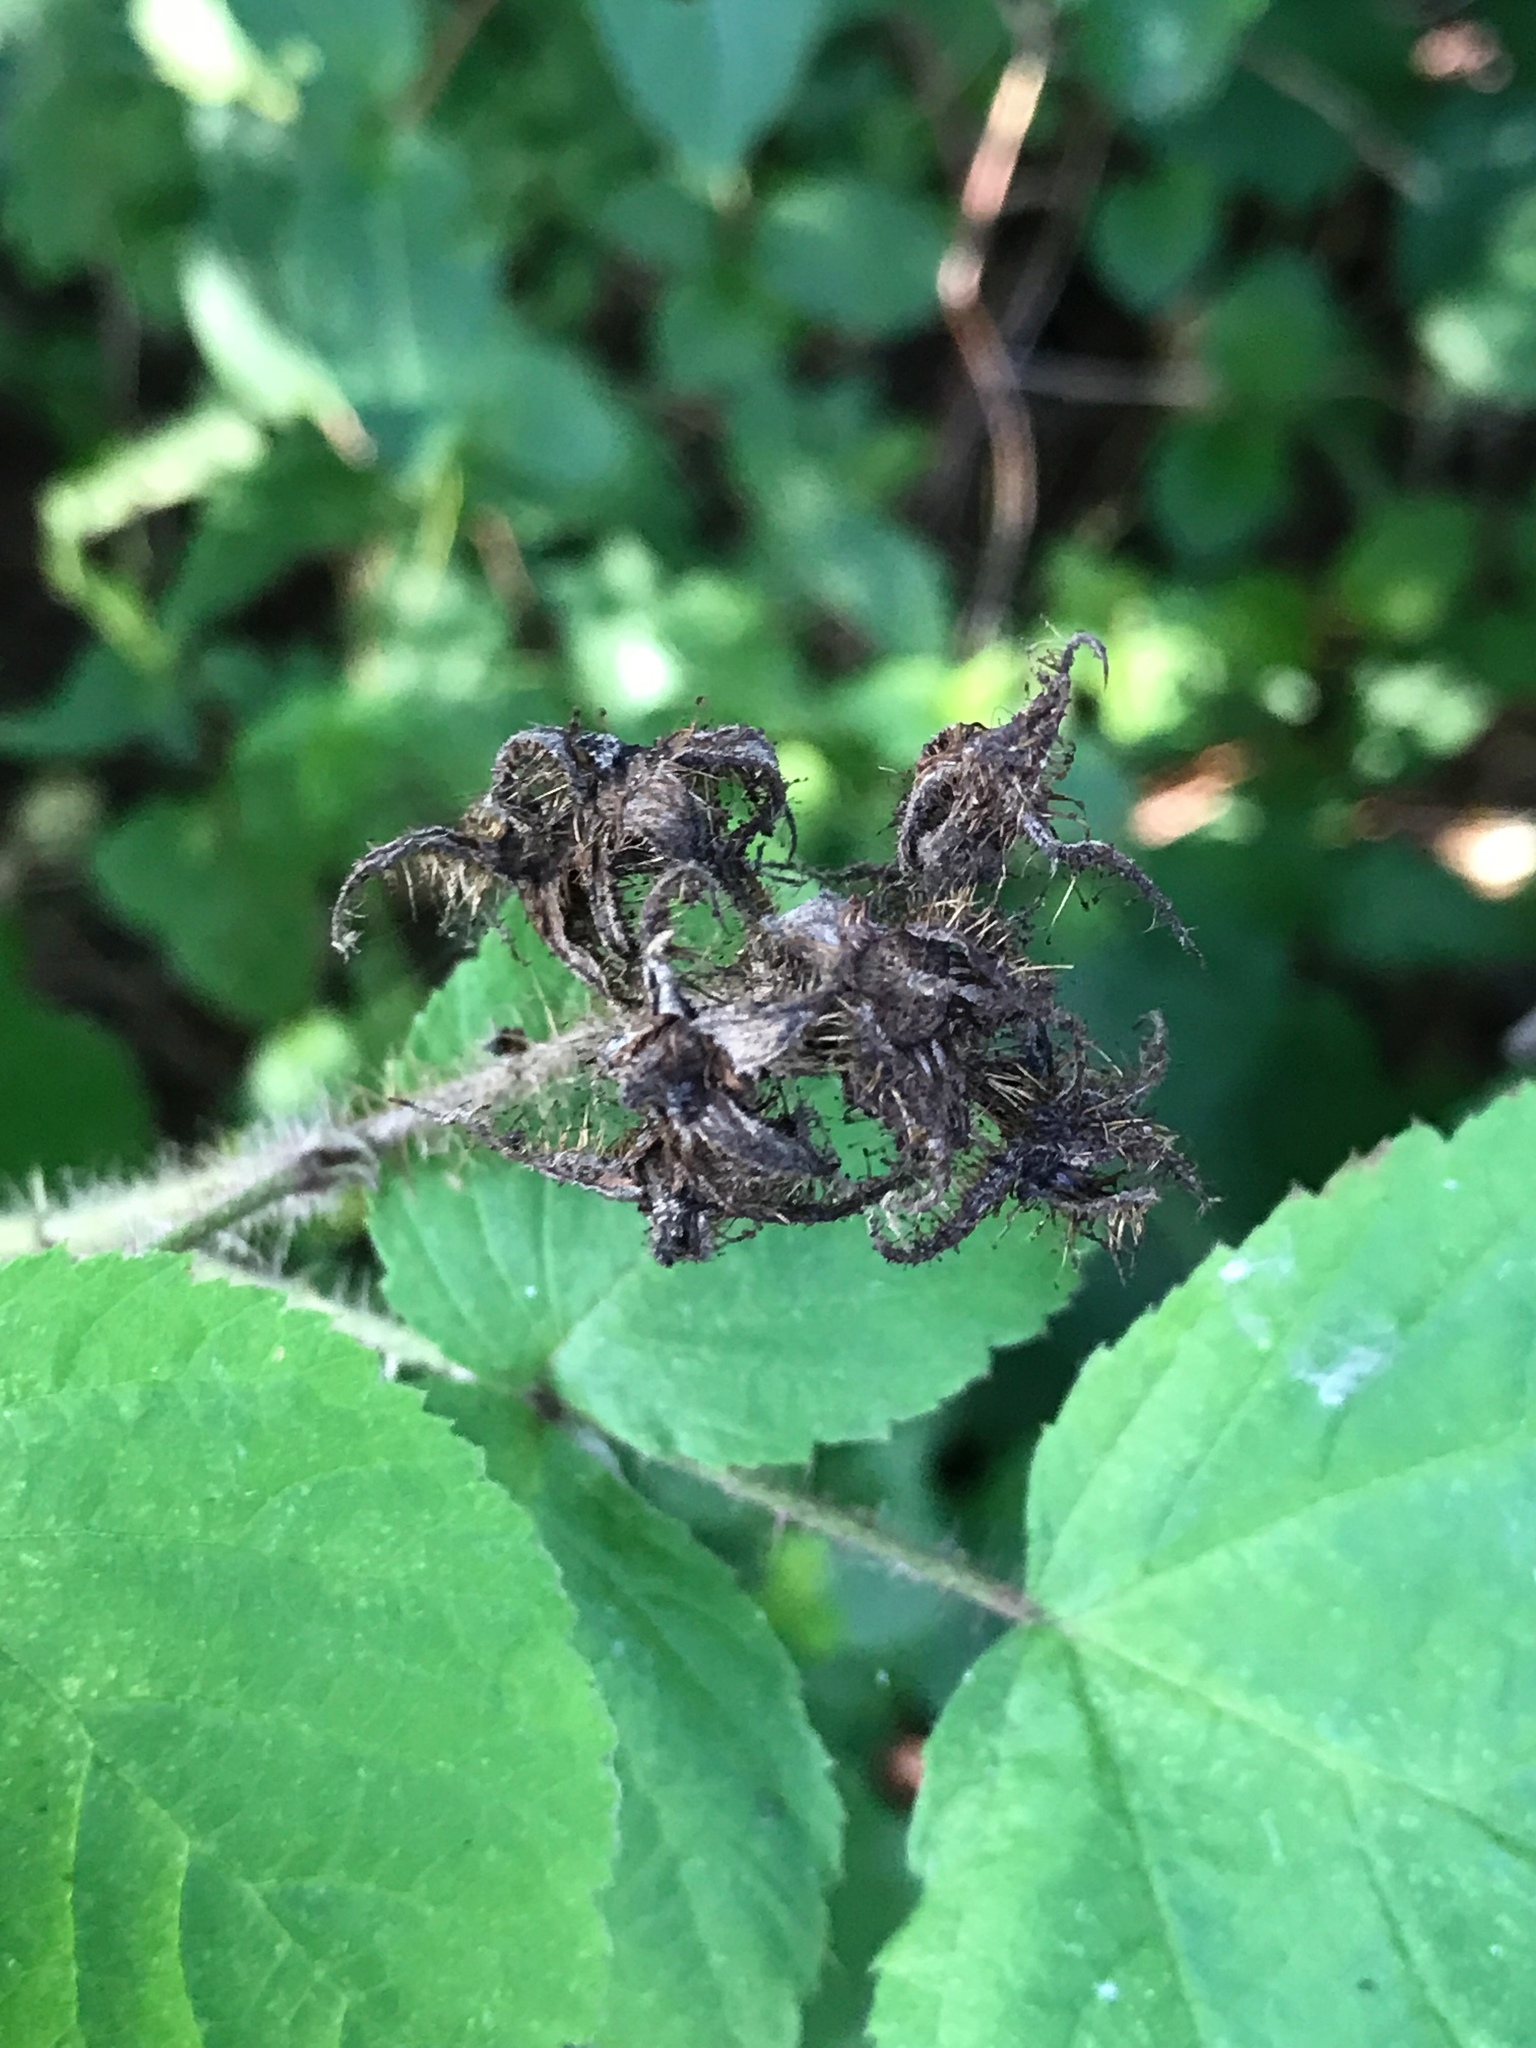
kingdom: Plantae
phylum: Tracheophyta
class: Magnoliopsida
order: Rosales
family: Rosaceae
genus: Rubus
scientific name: Rubus phoenicolasius
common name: Japanese wineberry
